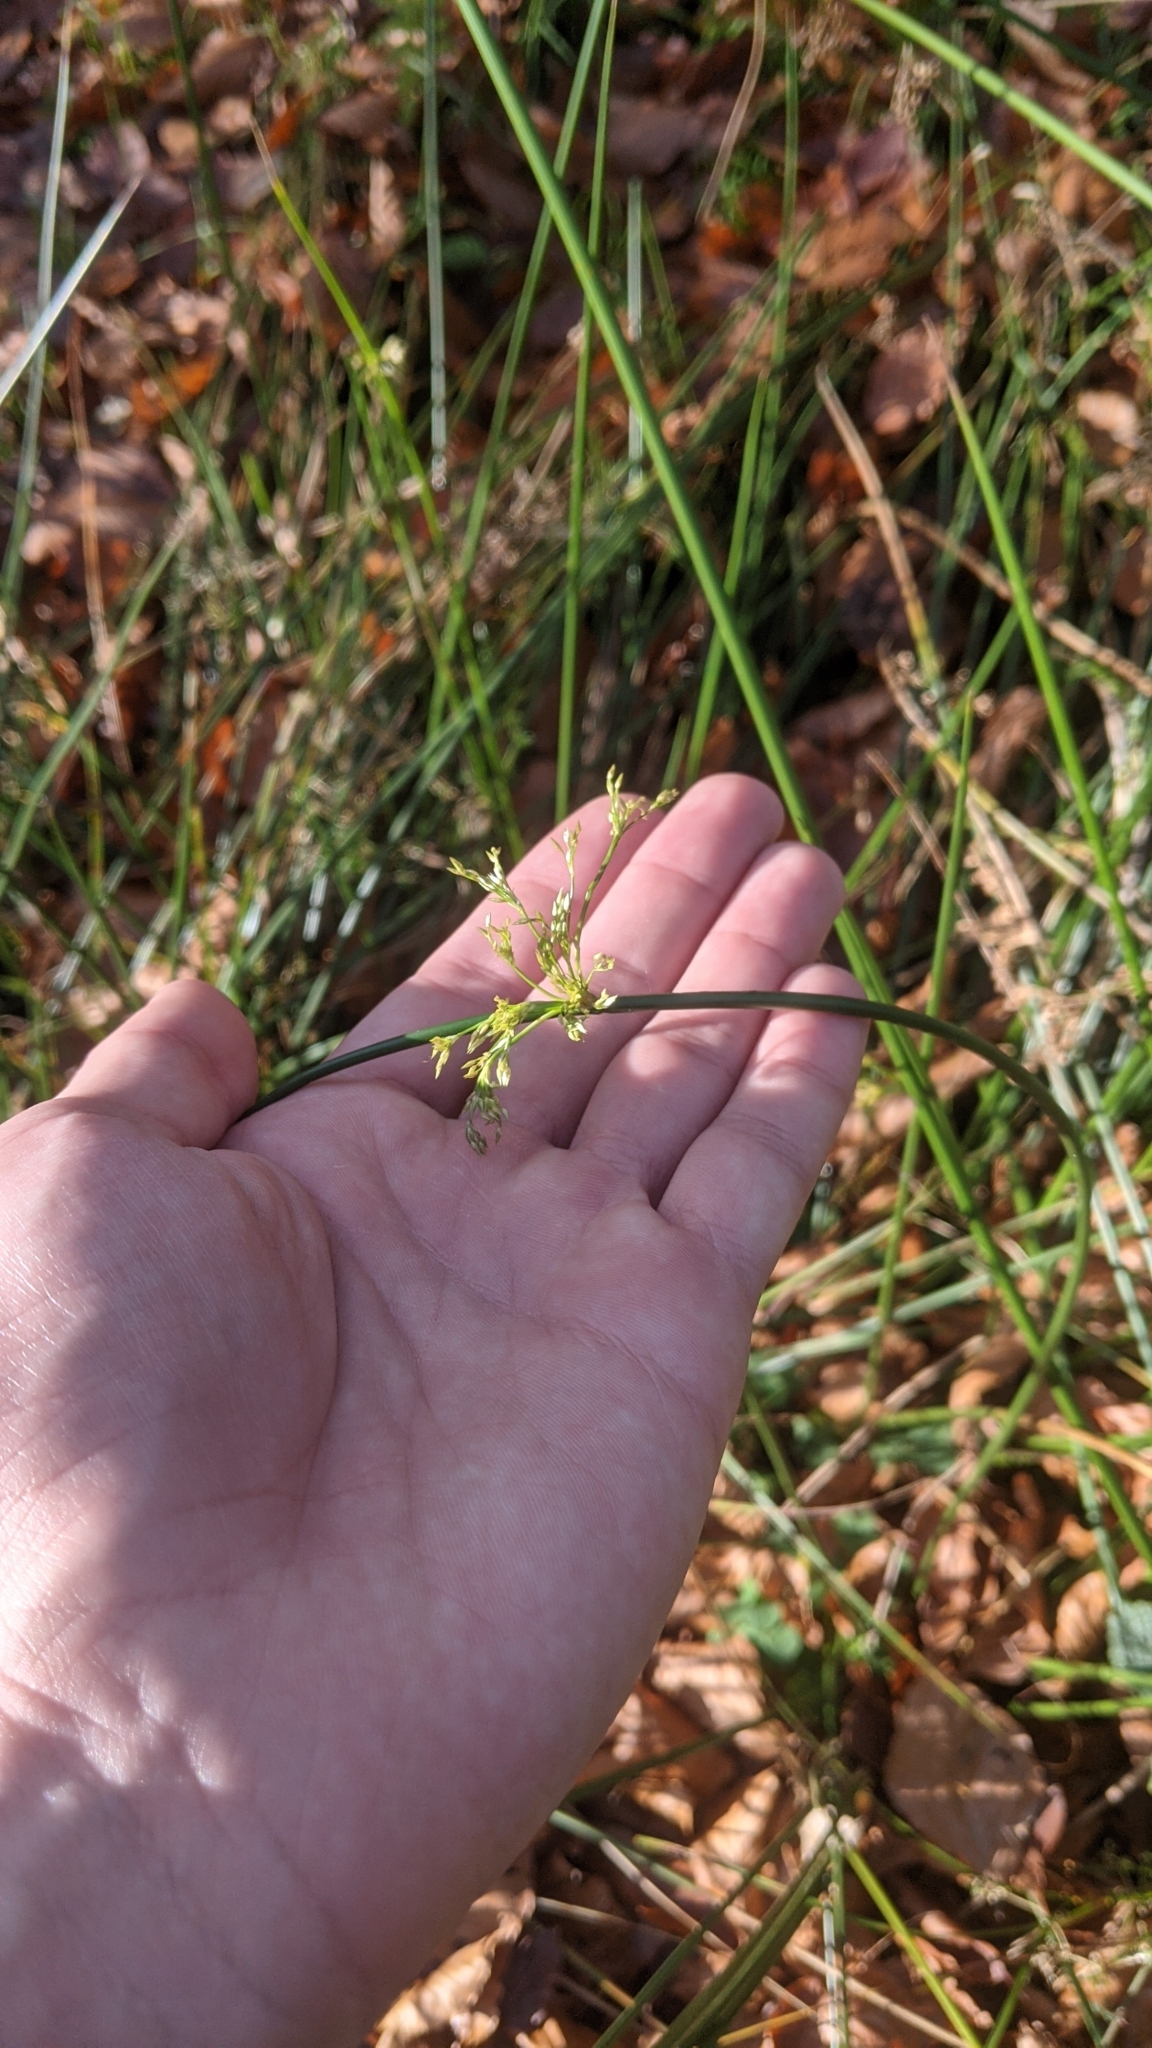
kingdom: Plantae
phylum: Tracheophyta
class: Liliopsida
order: Poales
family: Juncaceae
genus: Juncus
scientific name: Juncus effusus
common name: Soft rush
